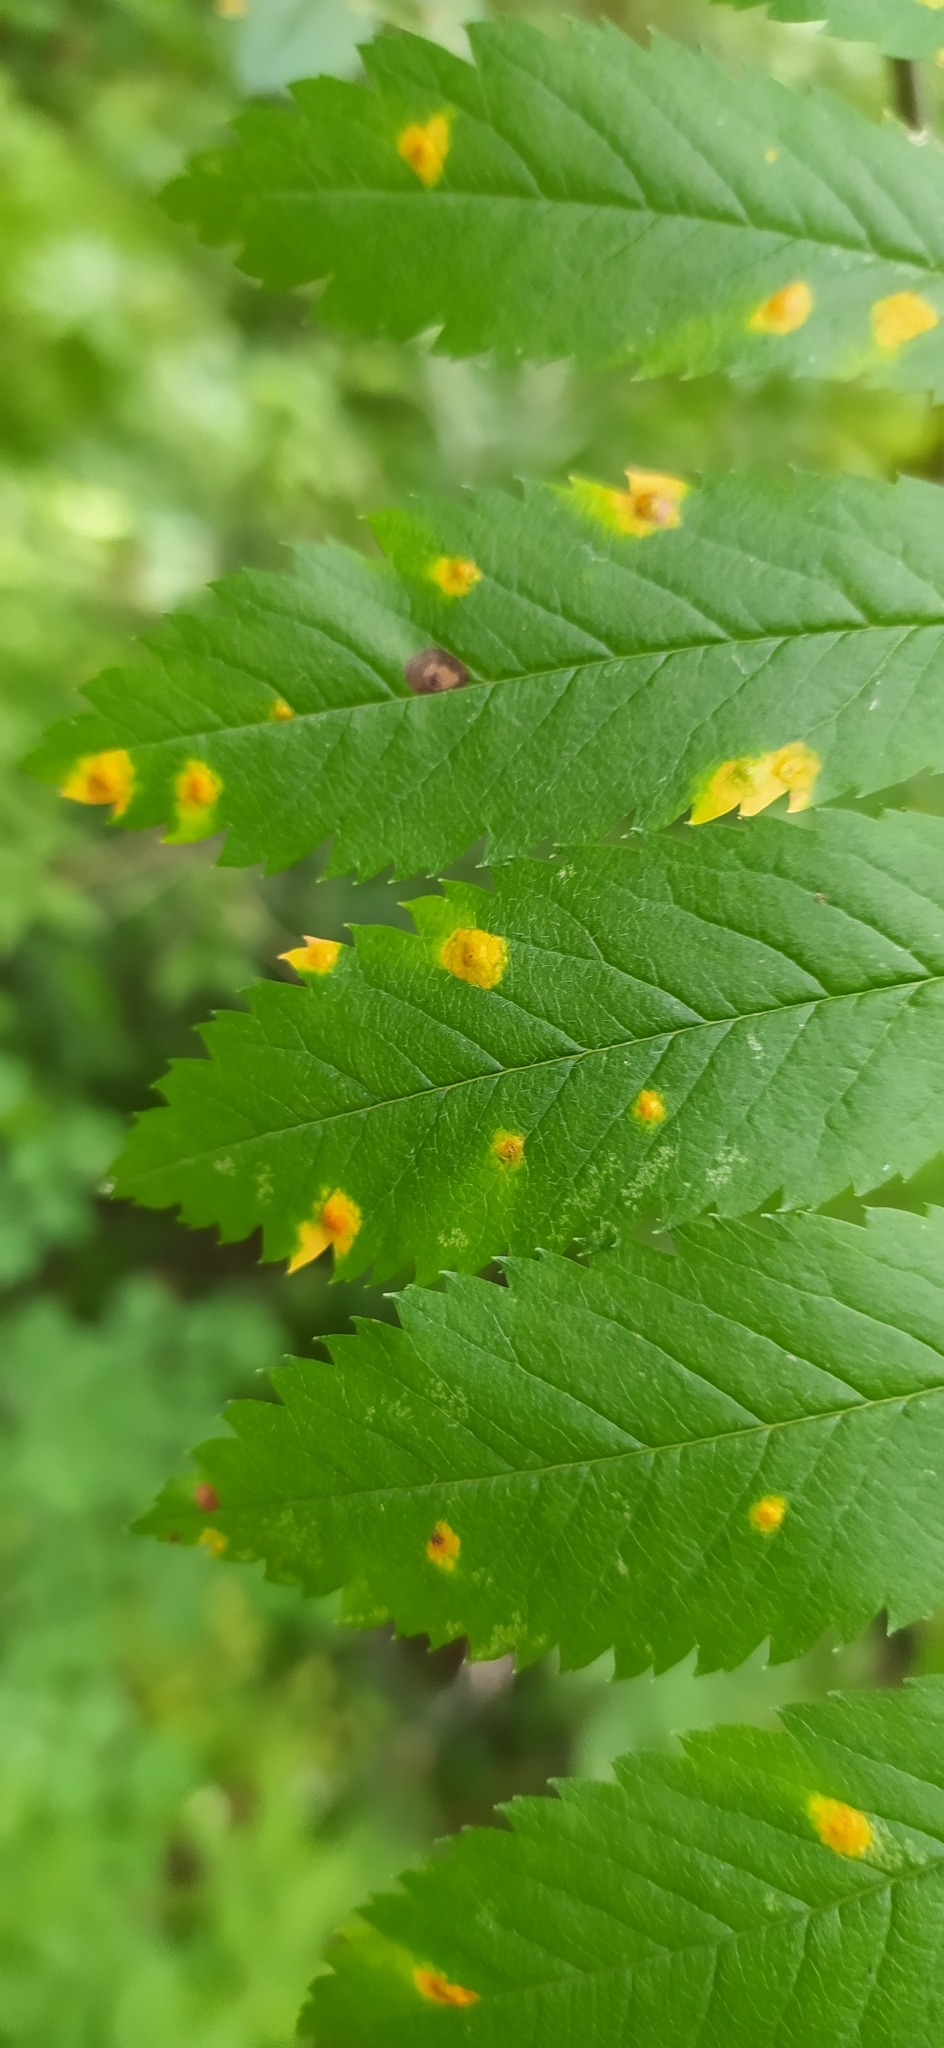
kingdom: Fungi
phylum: Basidiomycota
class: Pucciniomycetes
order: Pucciniales
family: Gymnosporangiaceae
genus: Gymnosporangium
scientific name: Gymnosporangium cornutum
